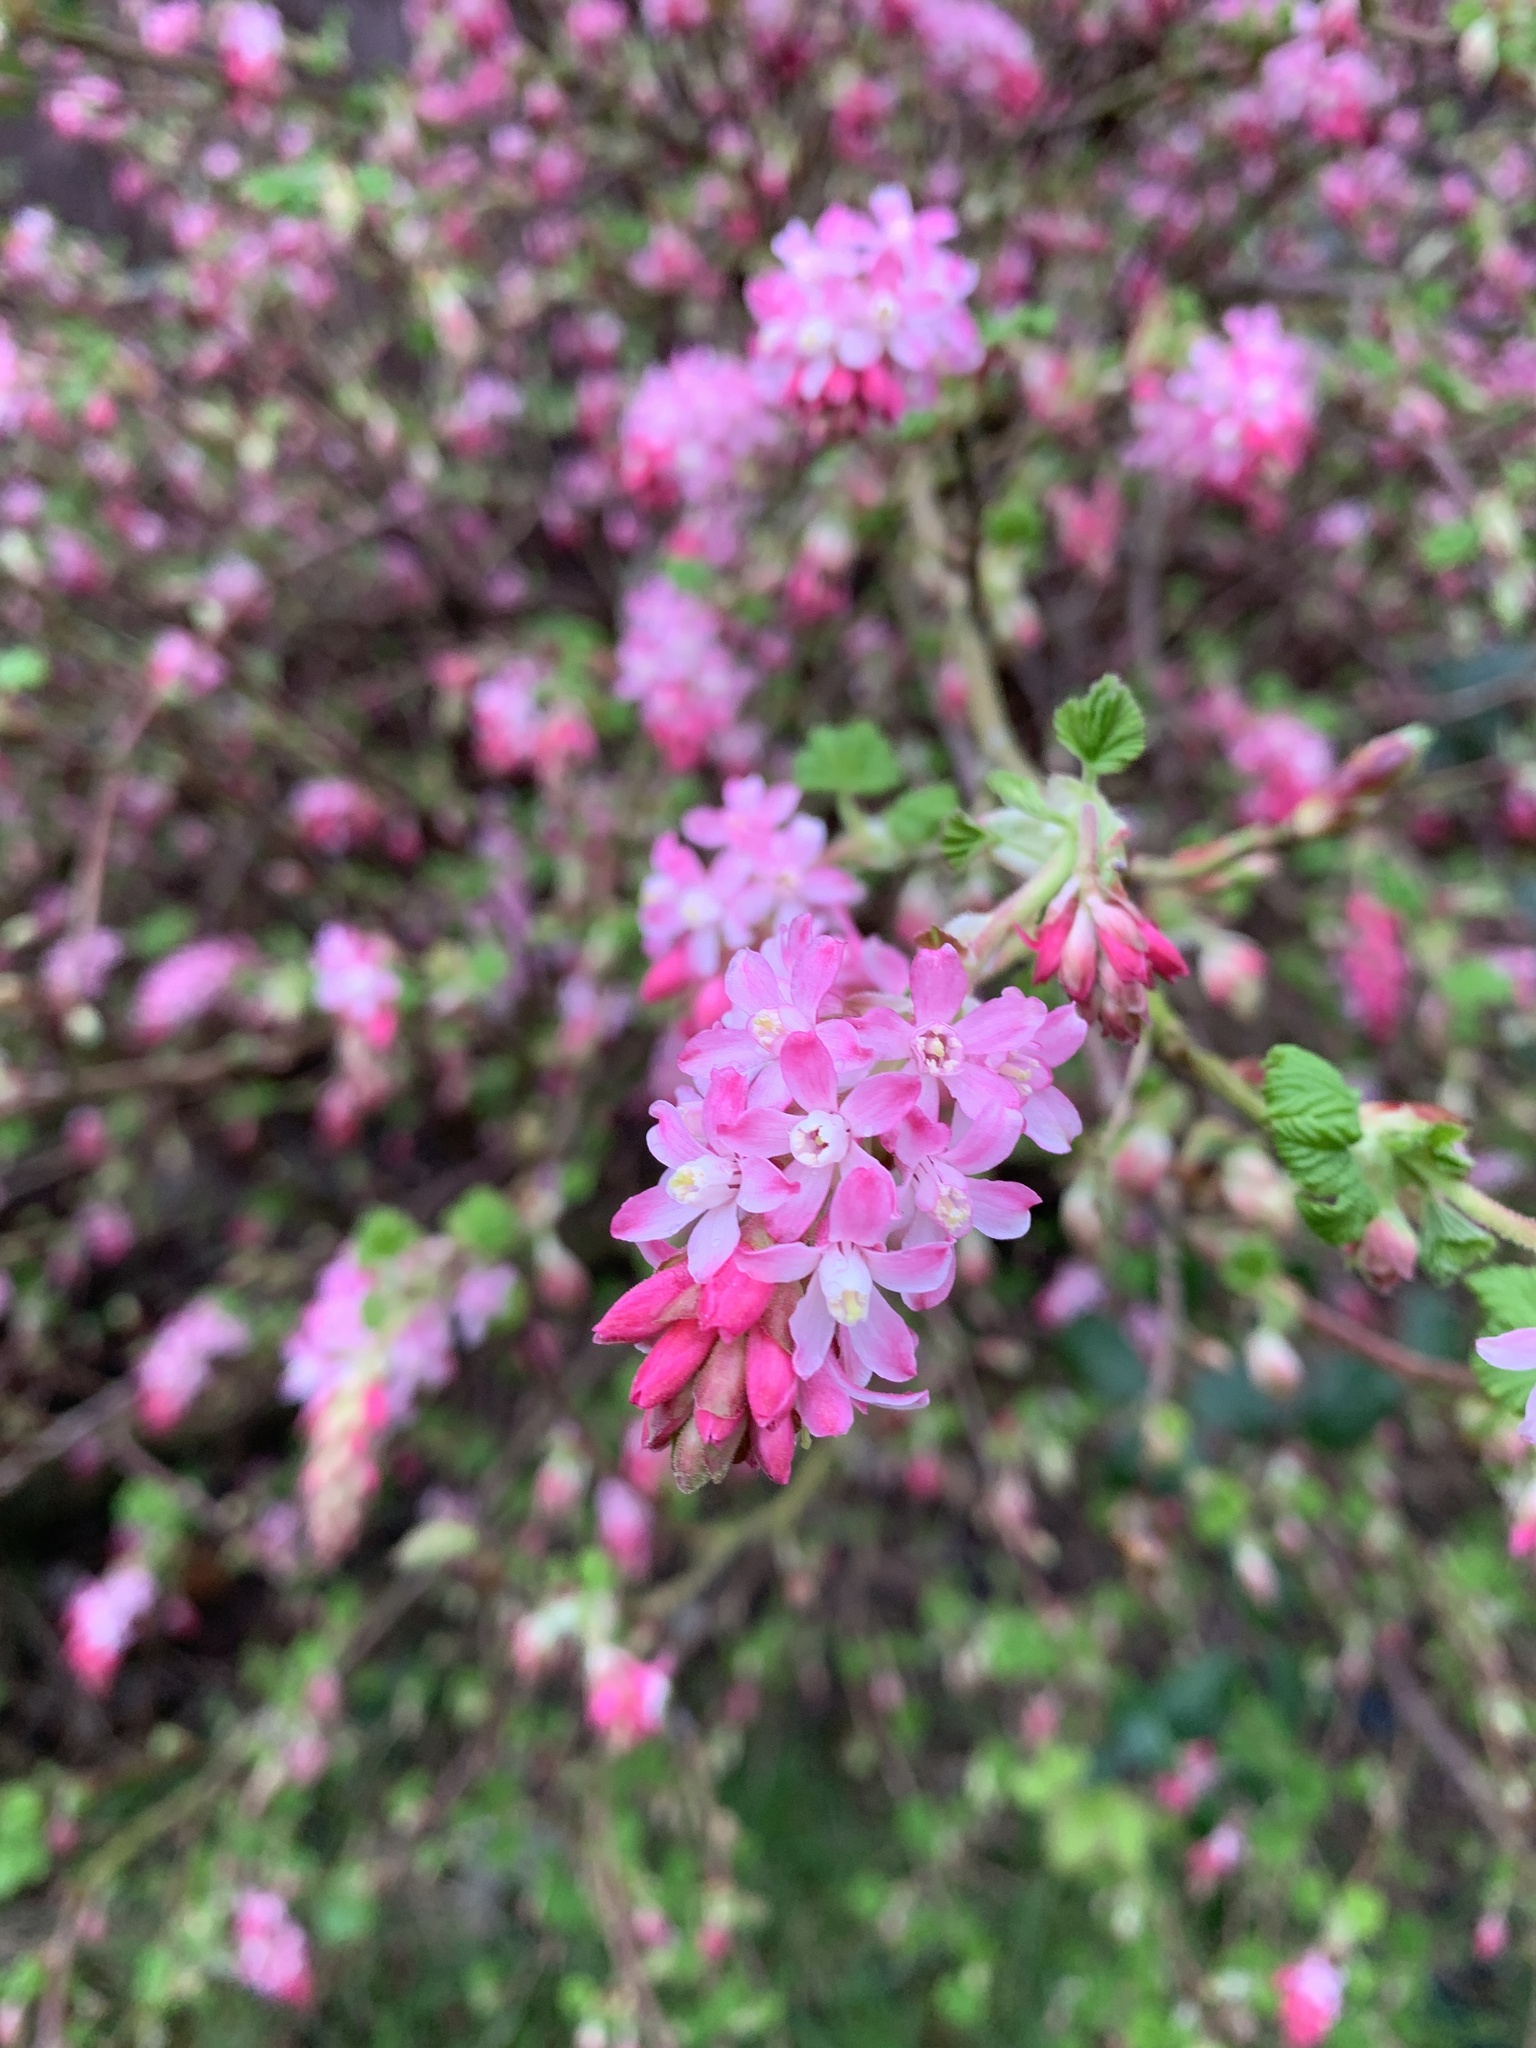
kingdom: Plantae
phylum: Tracheophyta
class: Magnoliopsida
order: Saxifragales
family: Grossulariaceae
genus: Ribes
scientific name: Ribes sanguineum
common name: Flowering currant
